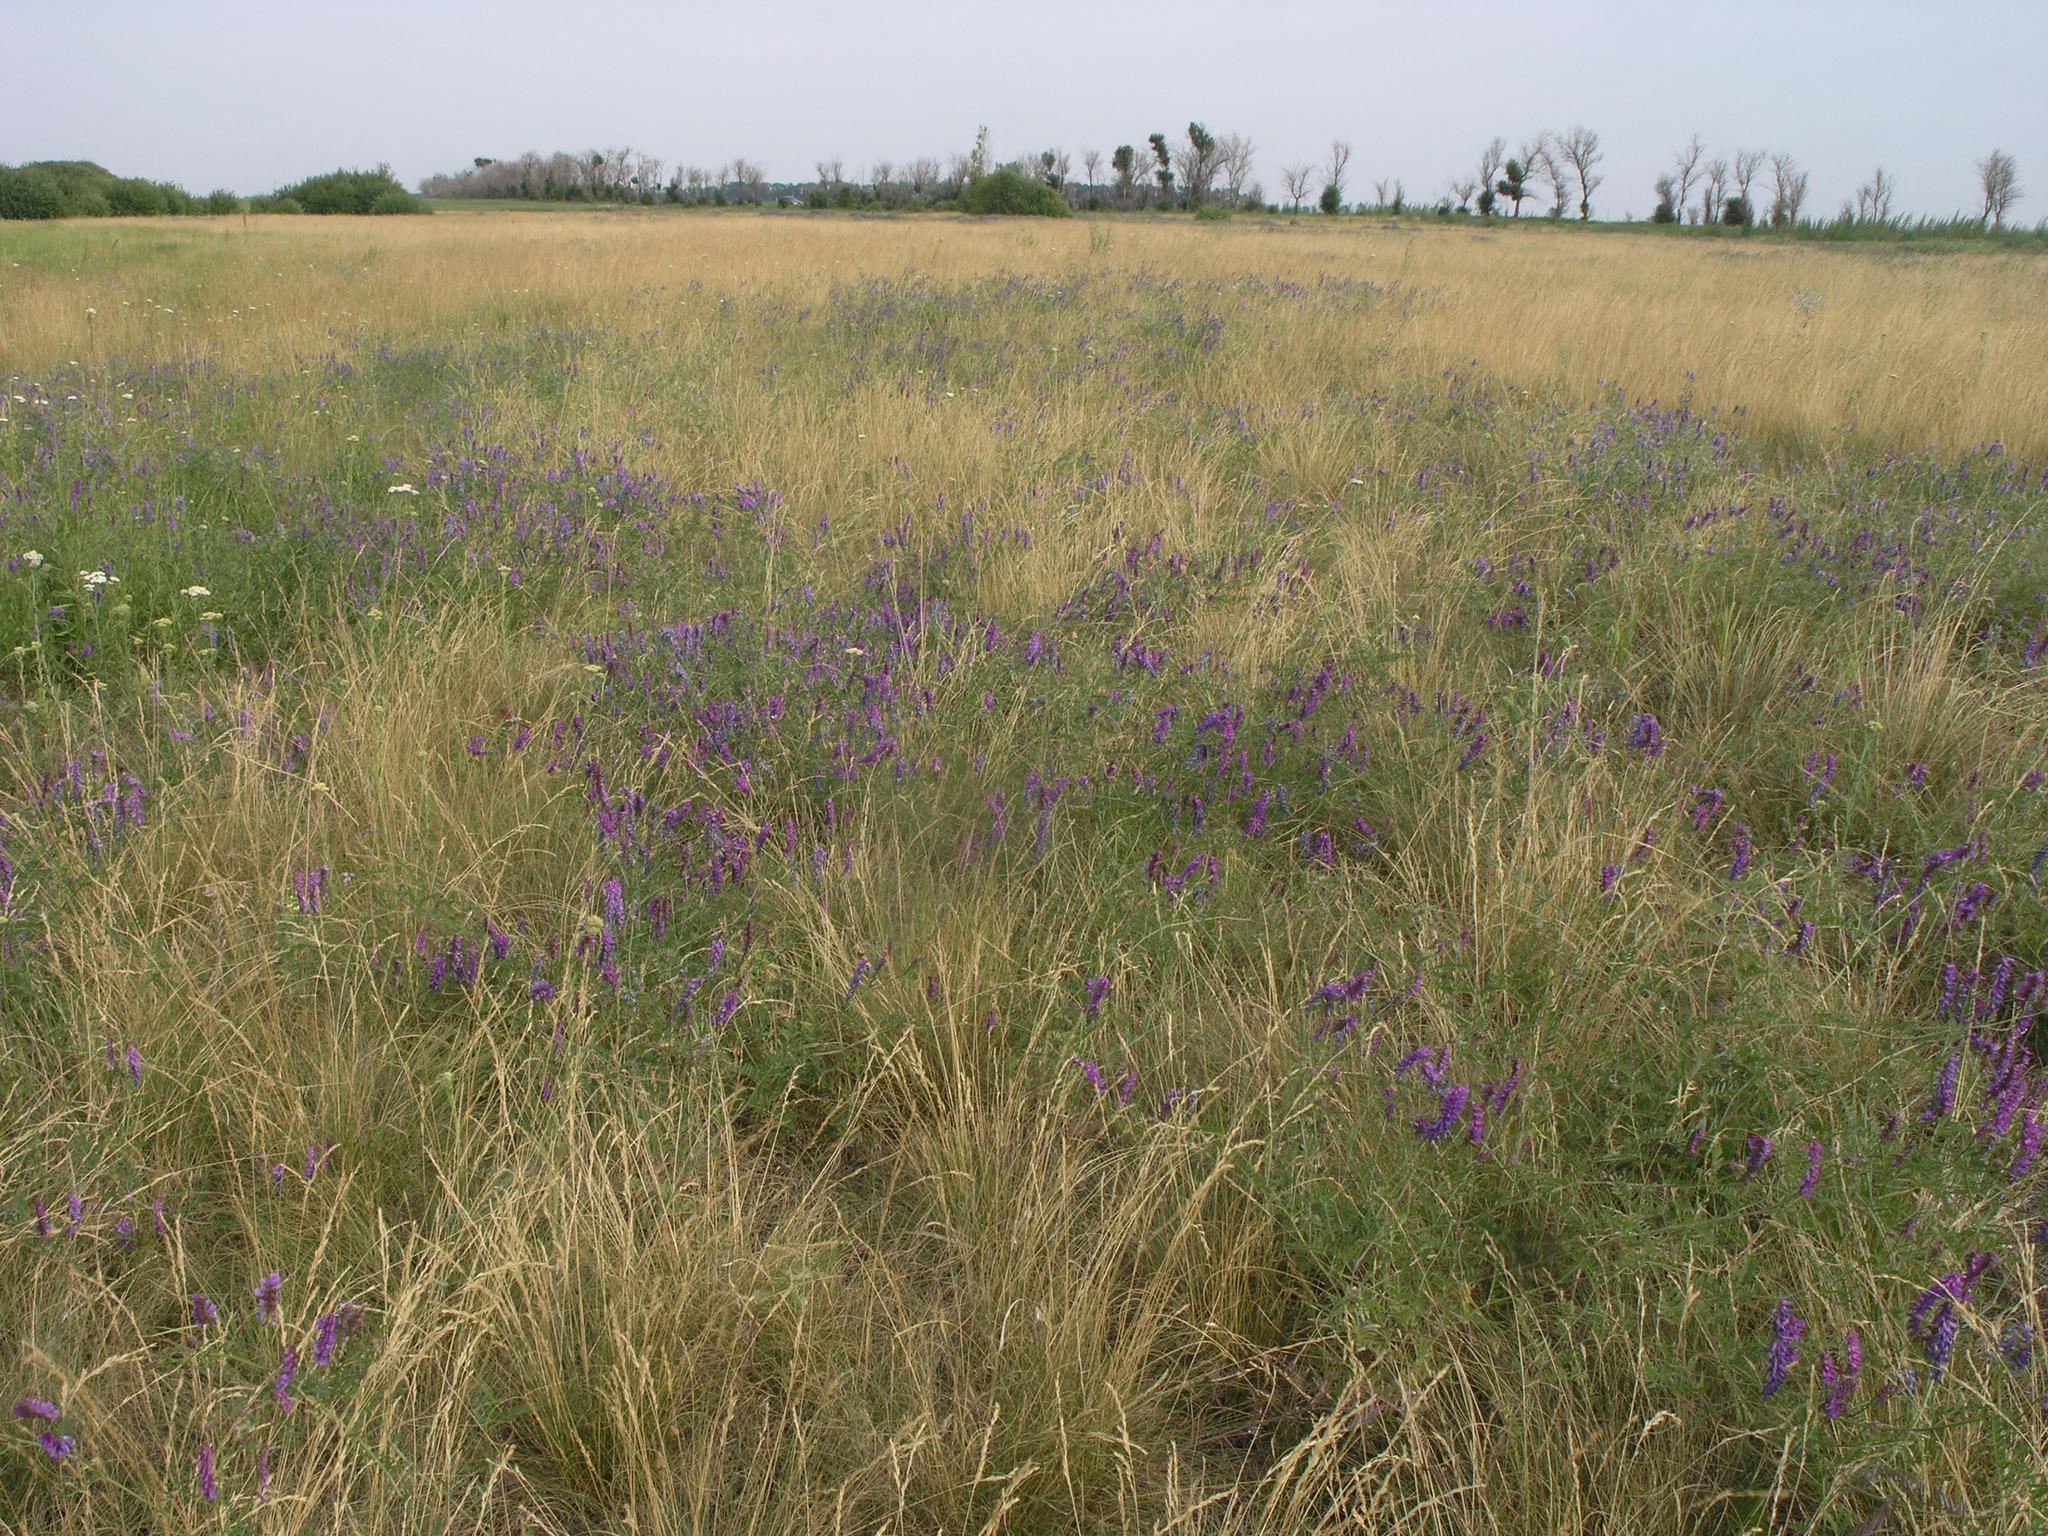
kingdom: Plantae
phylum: Tracheophyta
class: Magnoliopsida
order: Fabales
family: Fabaceae
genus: Vicia
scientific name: Vicia cracca
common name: Bird vetch
